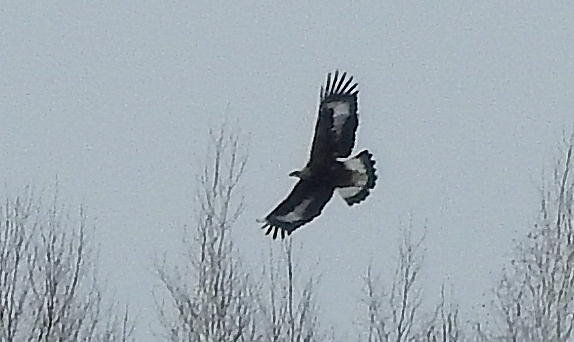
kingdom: Animalia
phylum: Chordata
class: Aves
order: Accipitriformes
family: Accipitridae
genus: Aquila
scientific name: Aquila chrysaetos
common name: Golden eagle
